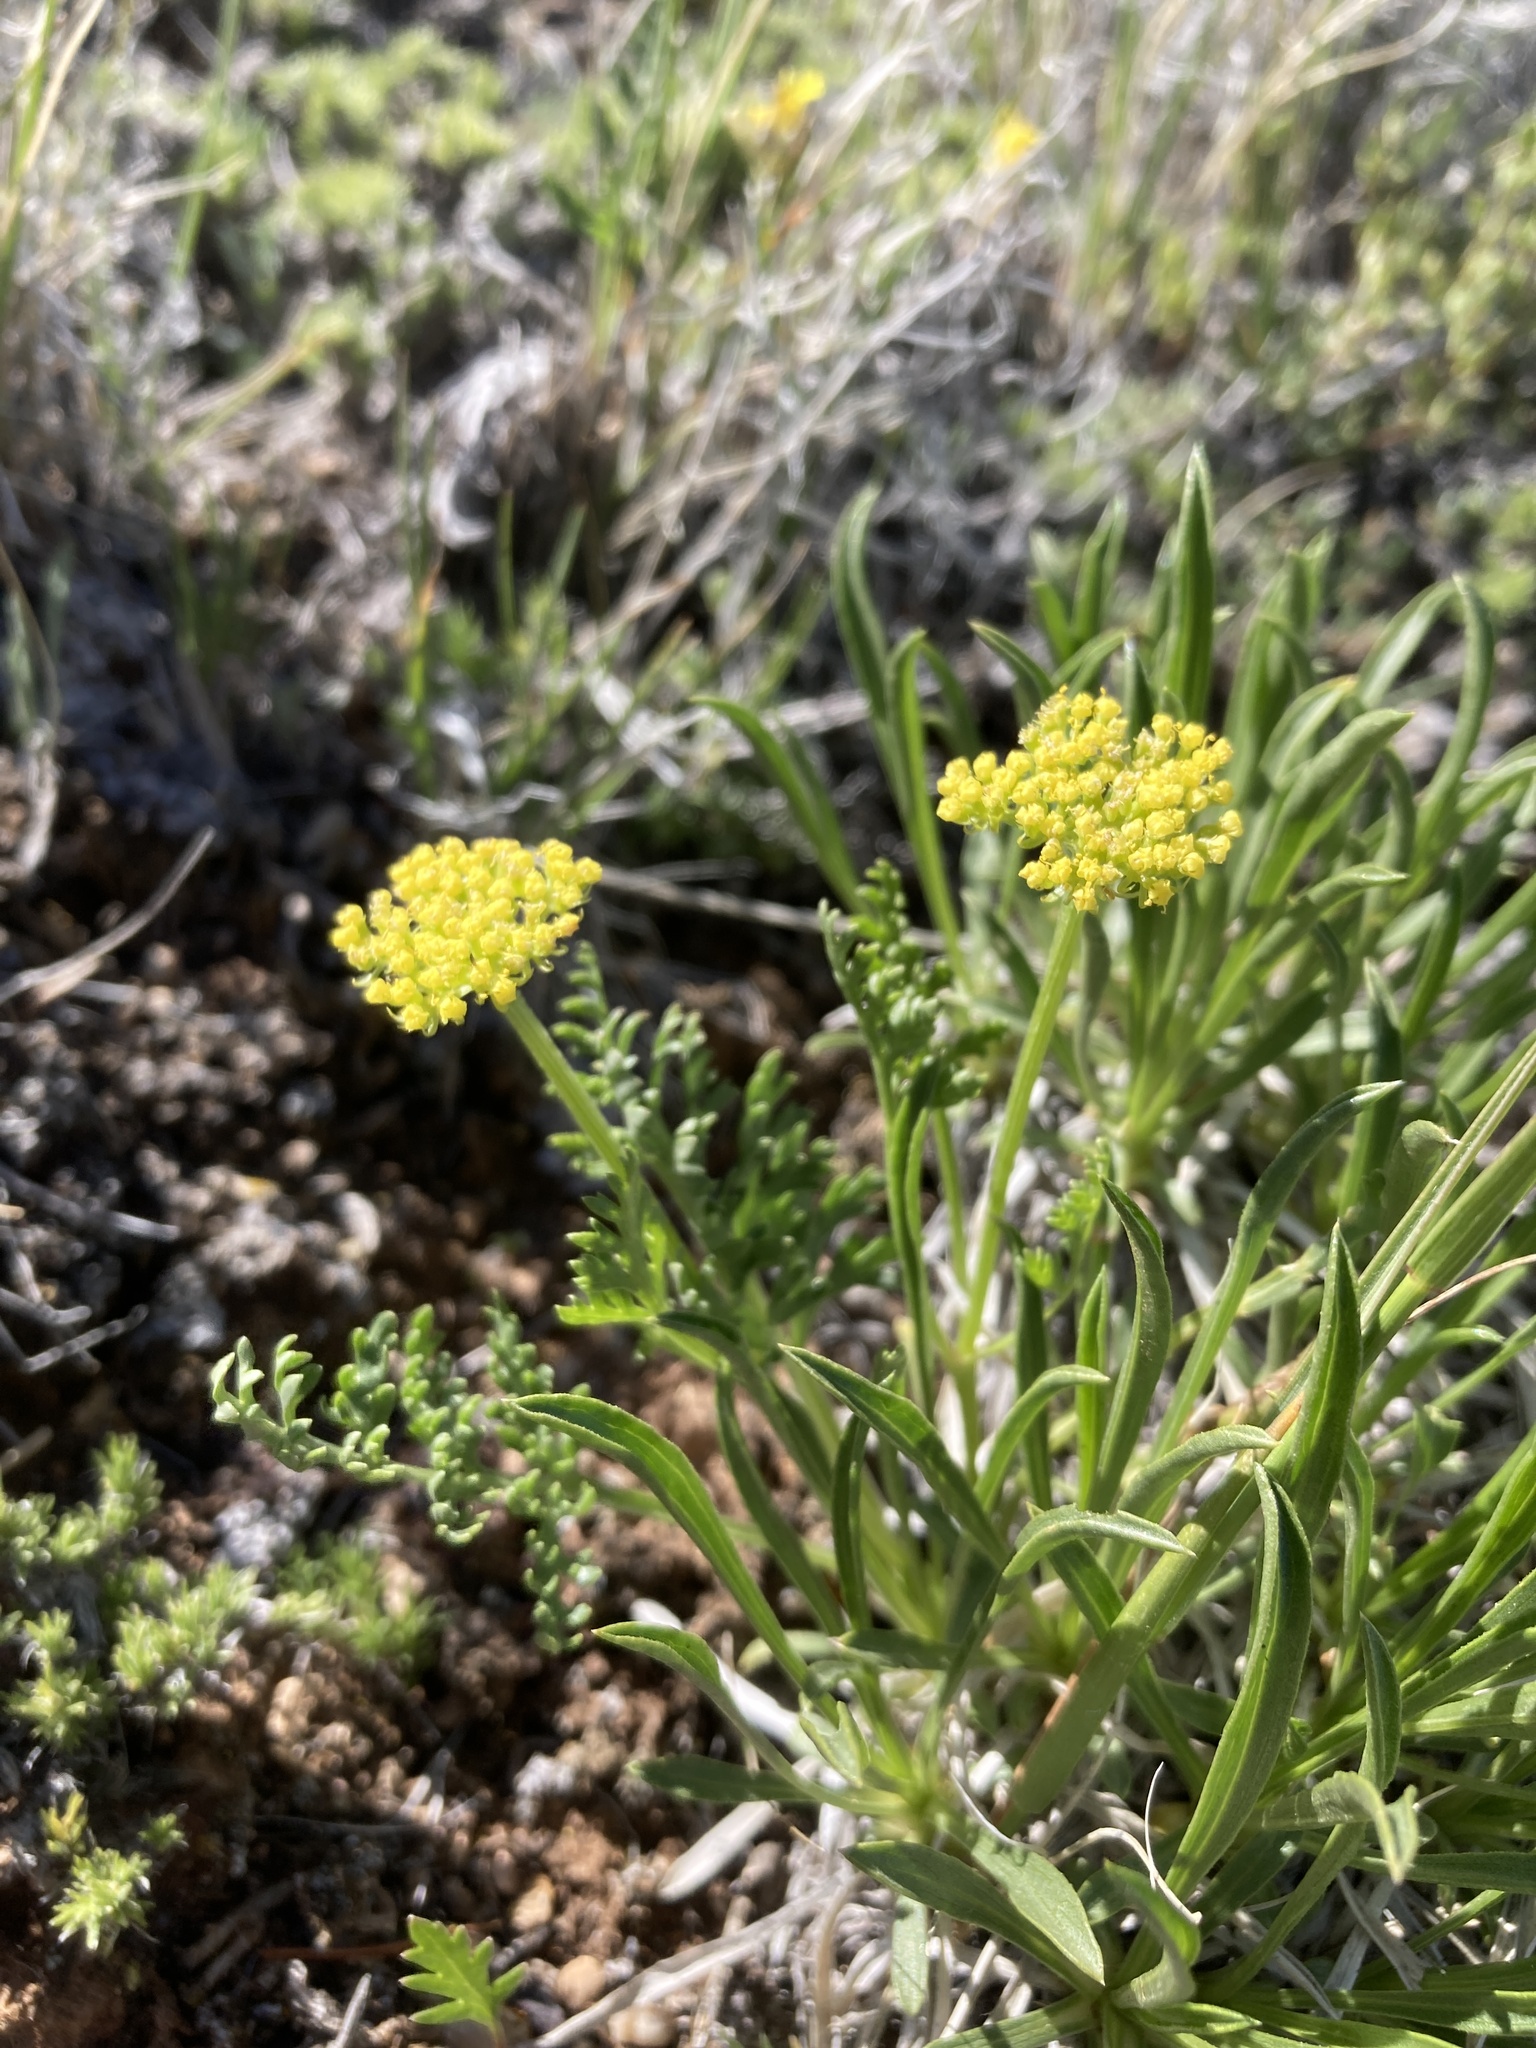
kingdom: Plantae
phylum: Tracheophyta
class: Magnoliopsida
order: Apiales
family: Apiaceae
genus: Musineon
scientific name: Musineon divaricatum
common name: Plains musineon
